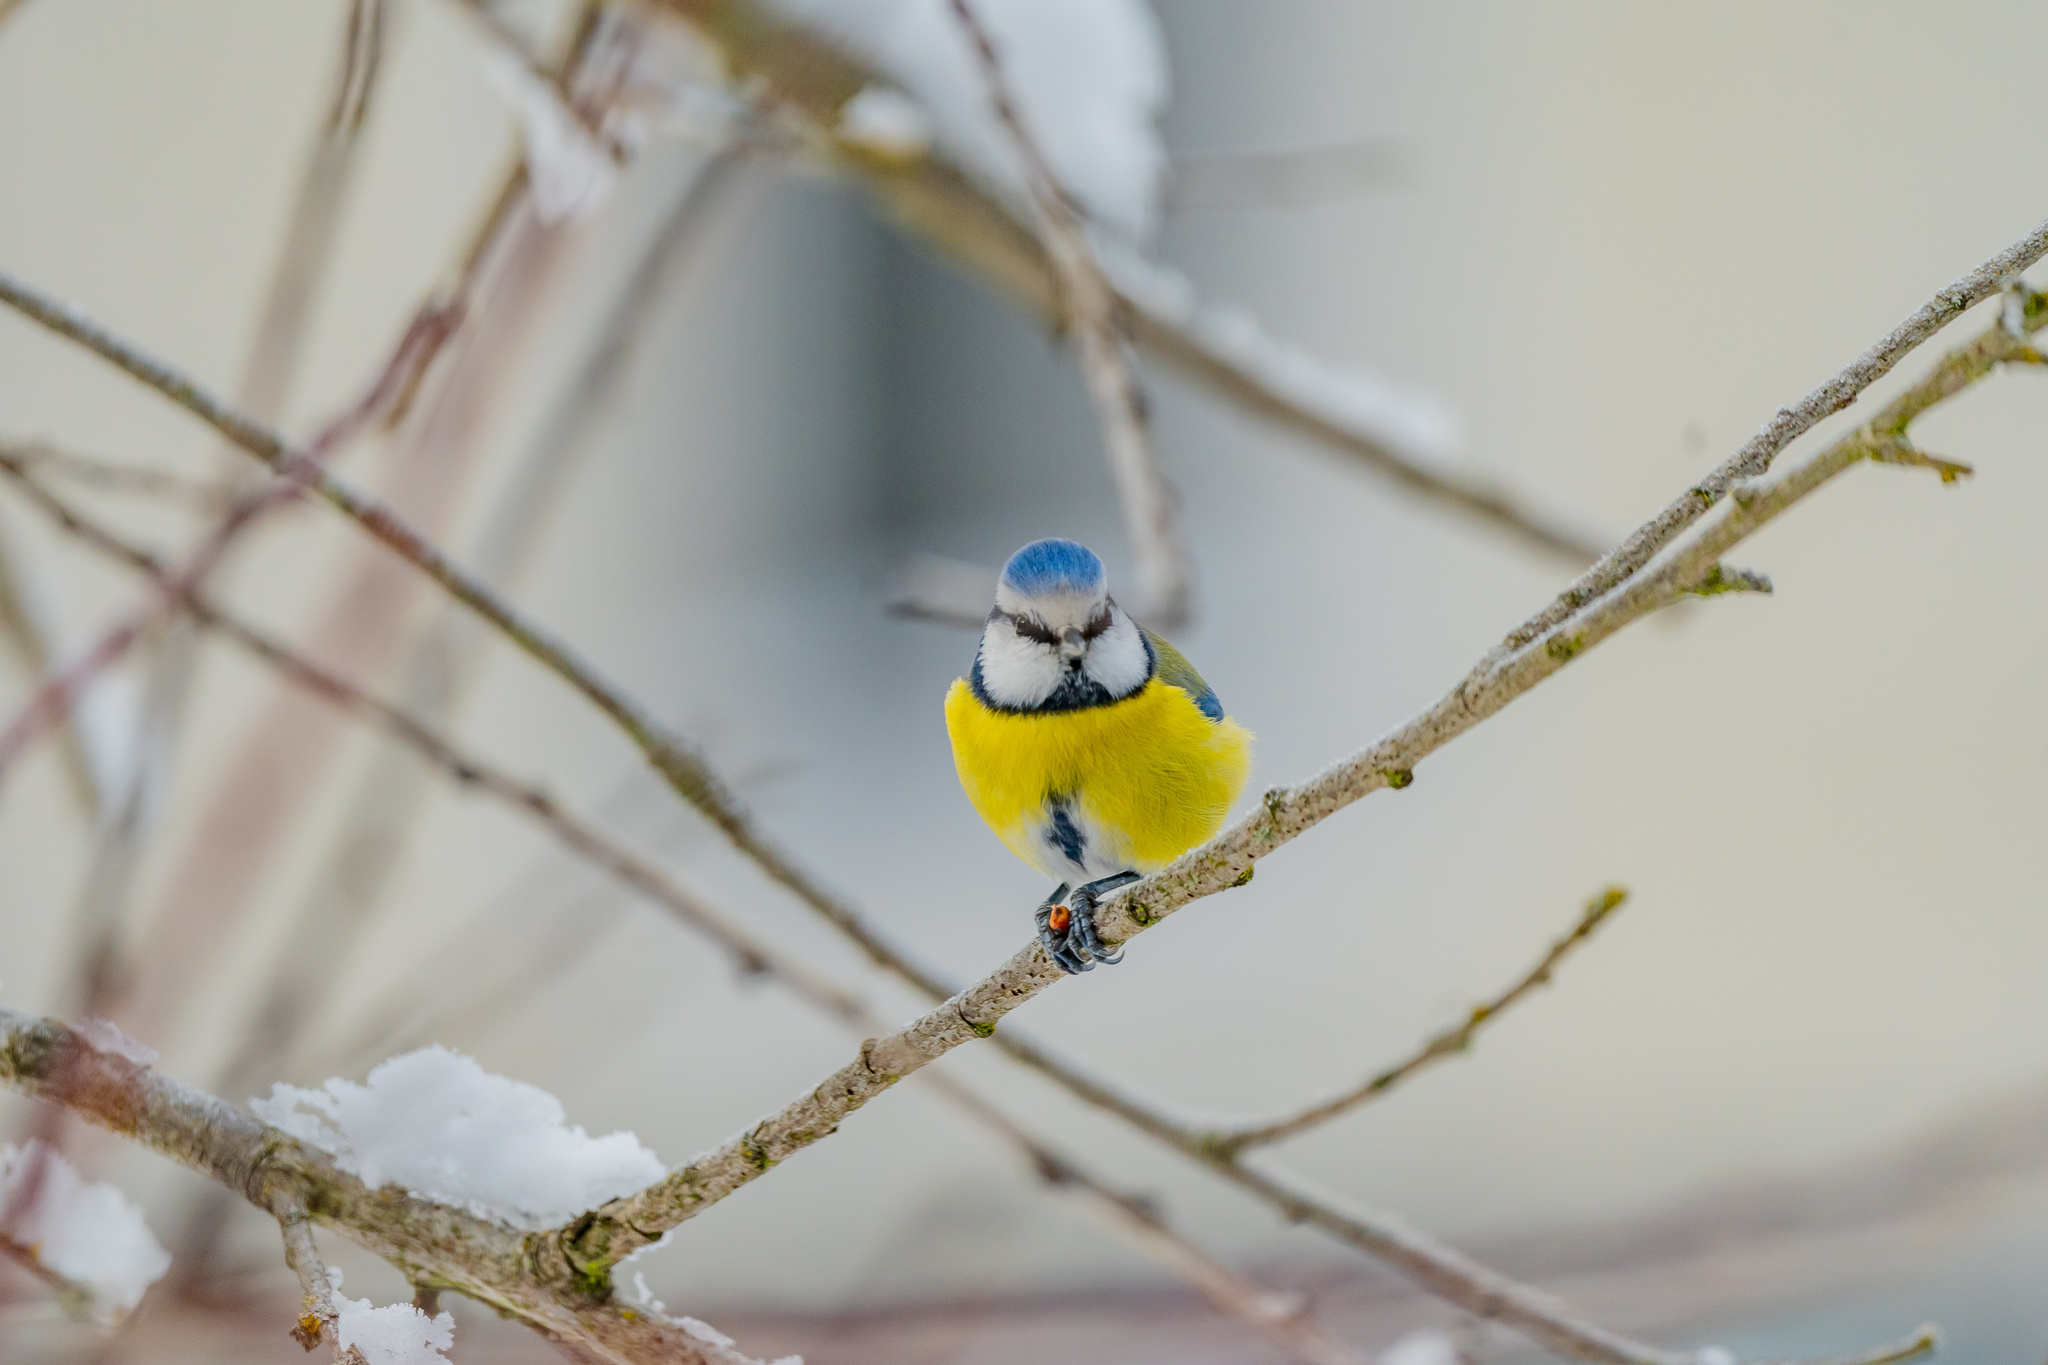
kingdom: Animalia
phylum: Chordata
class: Aves
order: Passeriformes
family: Paridae
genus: Cyanistes
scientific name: Cyanistes caeruleus
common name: Eurasian blue tit
